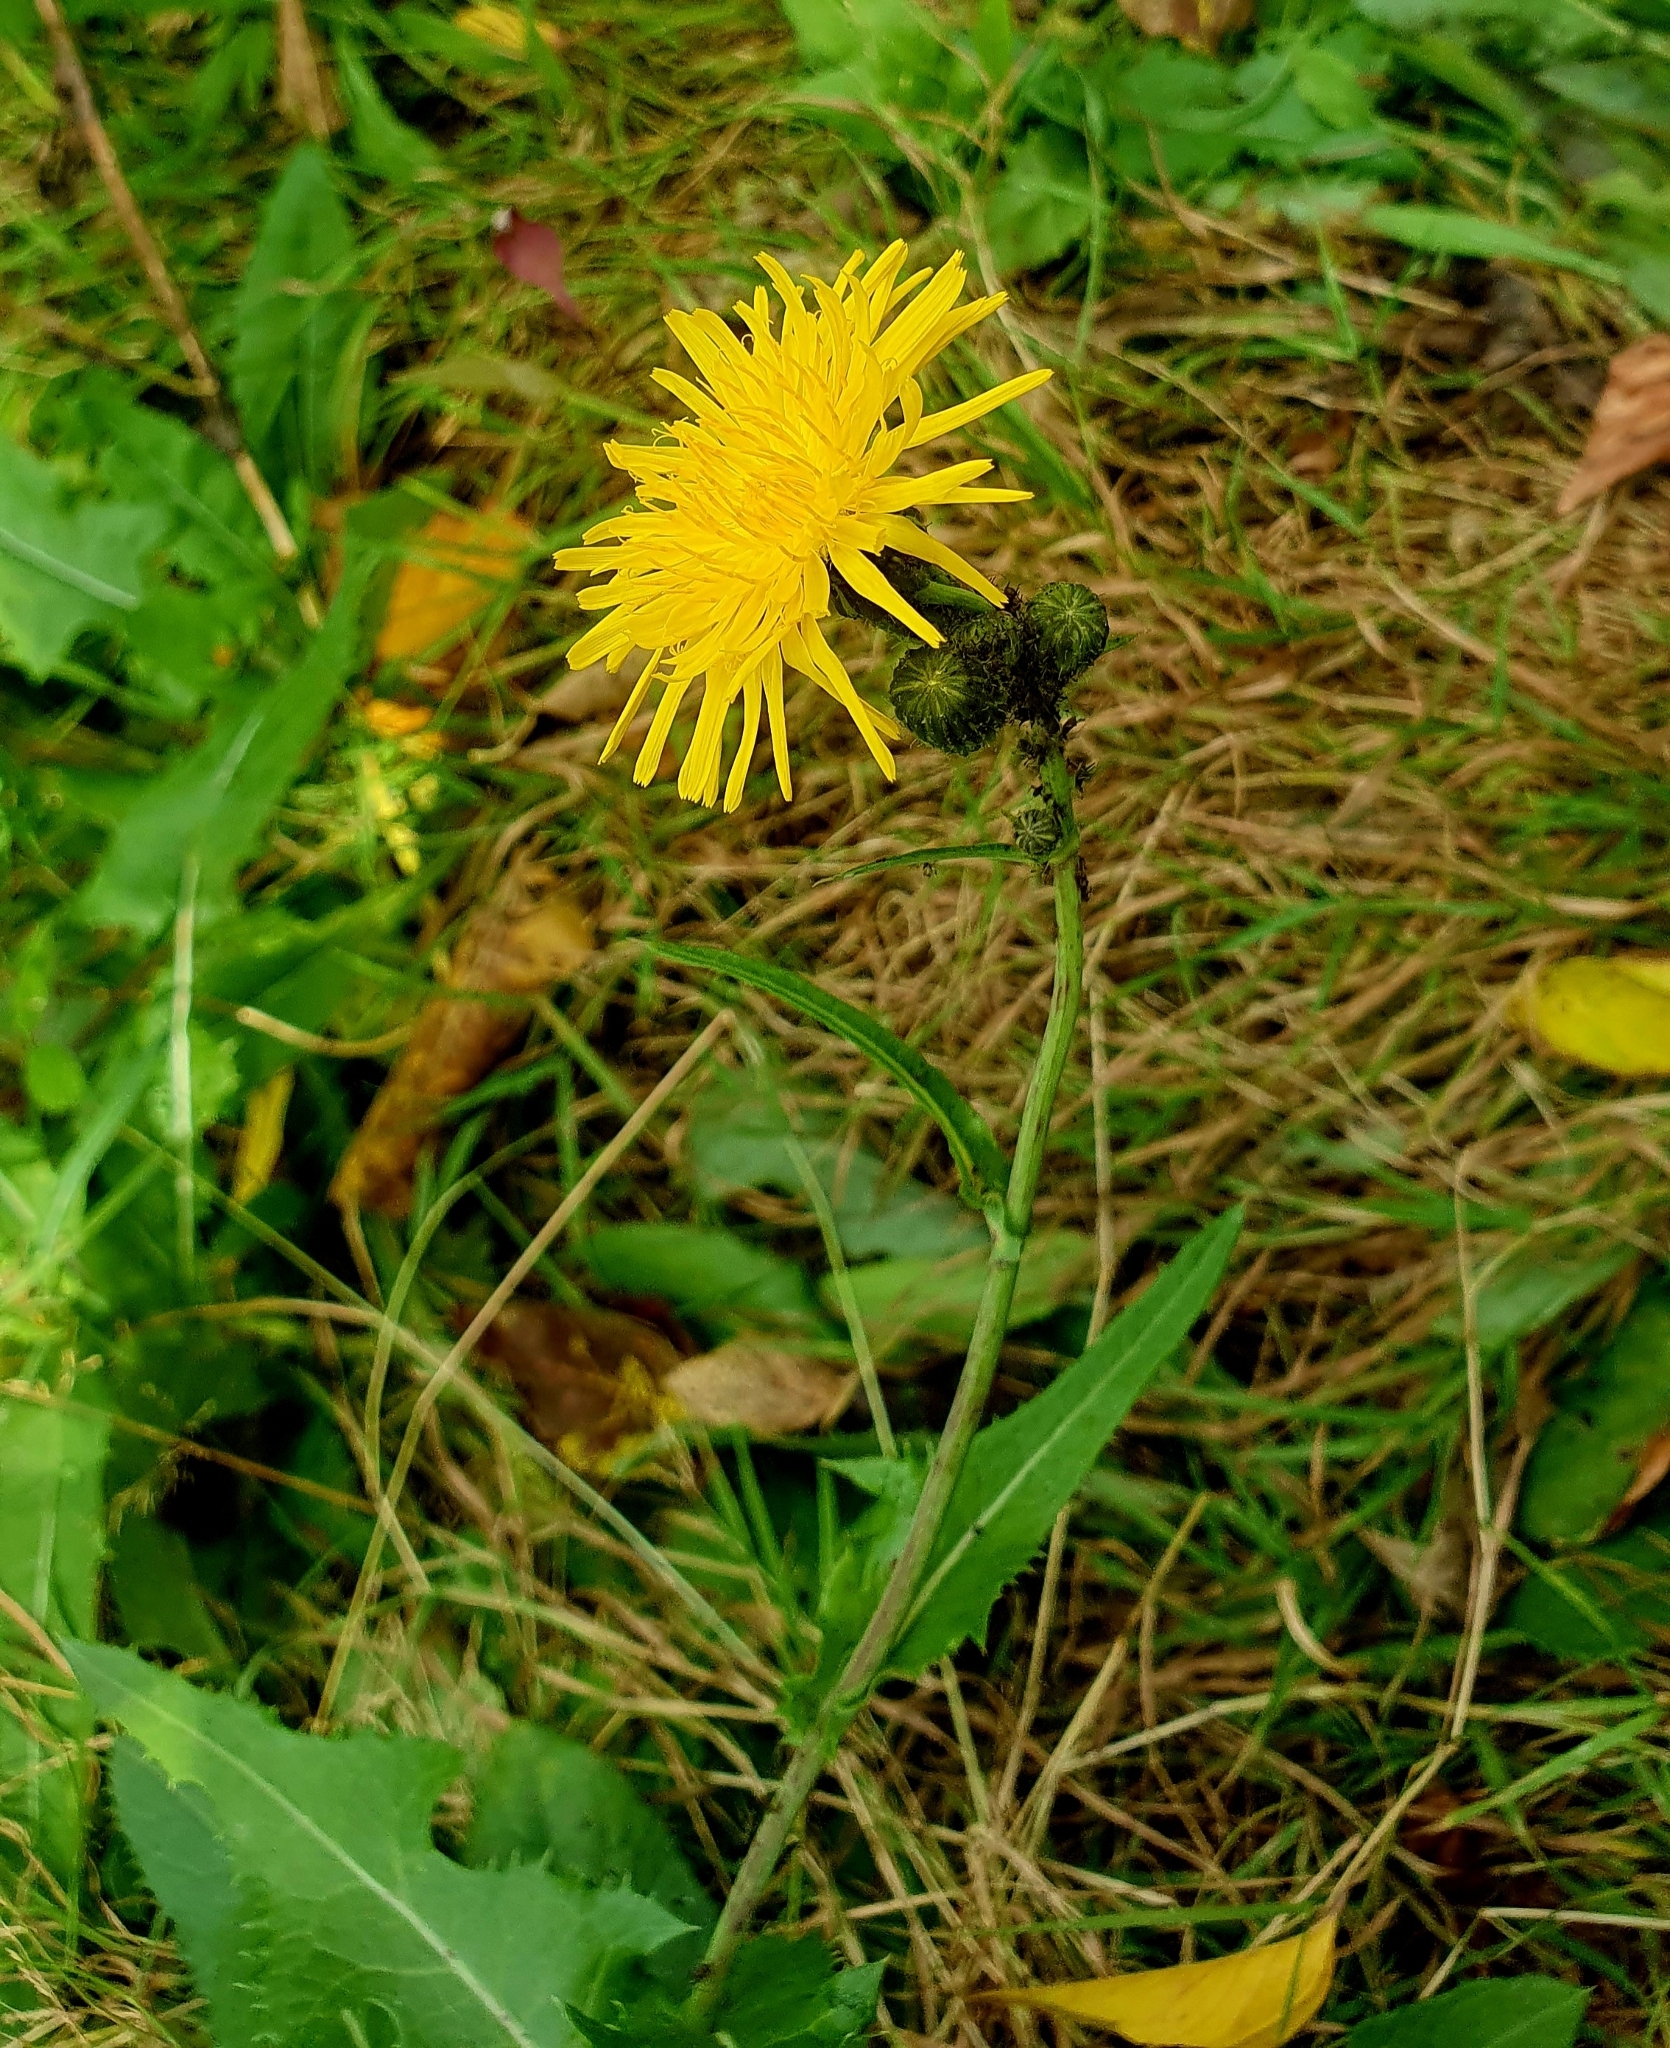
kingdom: Plantae
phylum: Tracheophyta
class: Magnoliopsida
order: Asterales
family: Asteraceae
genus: Sonchus
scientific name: Sonchus arvensis
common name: Perennial sow-thistle
